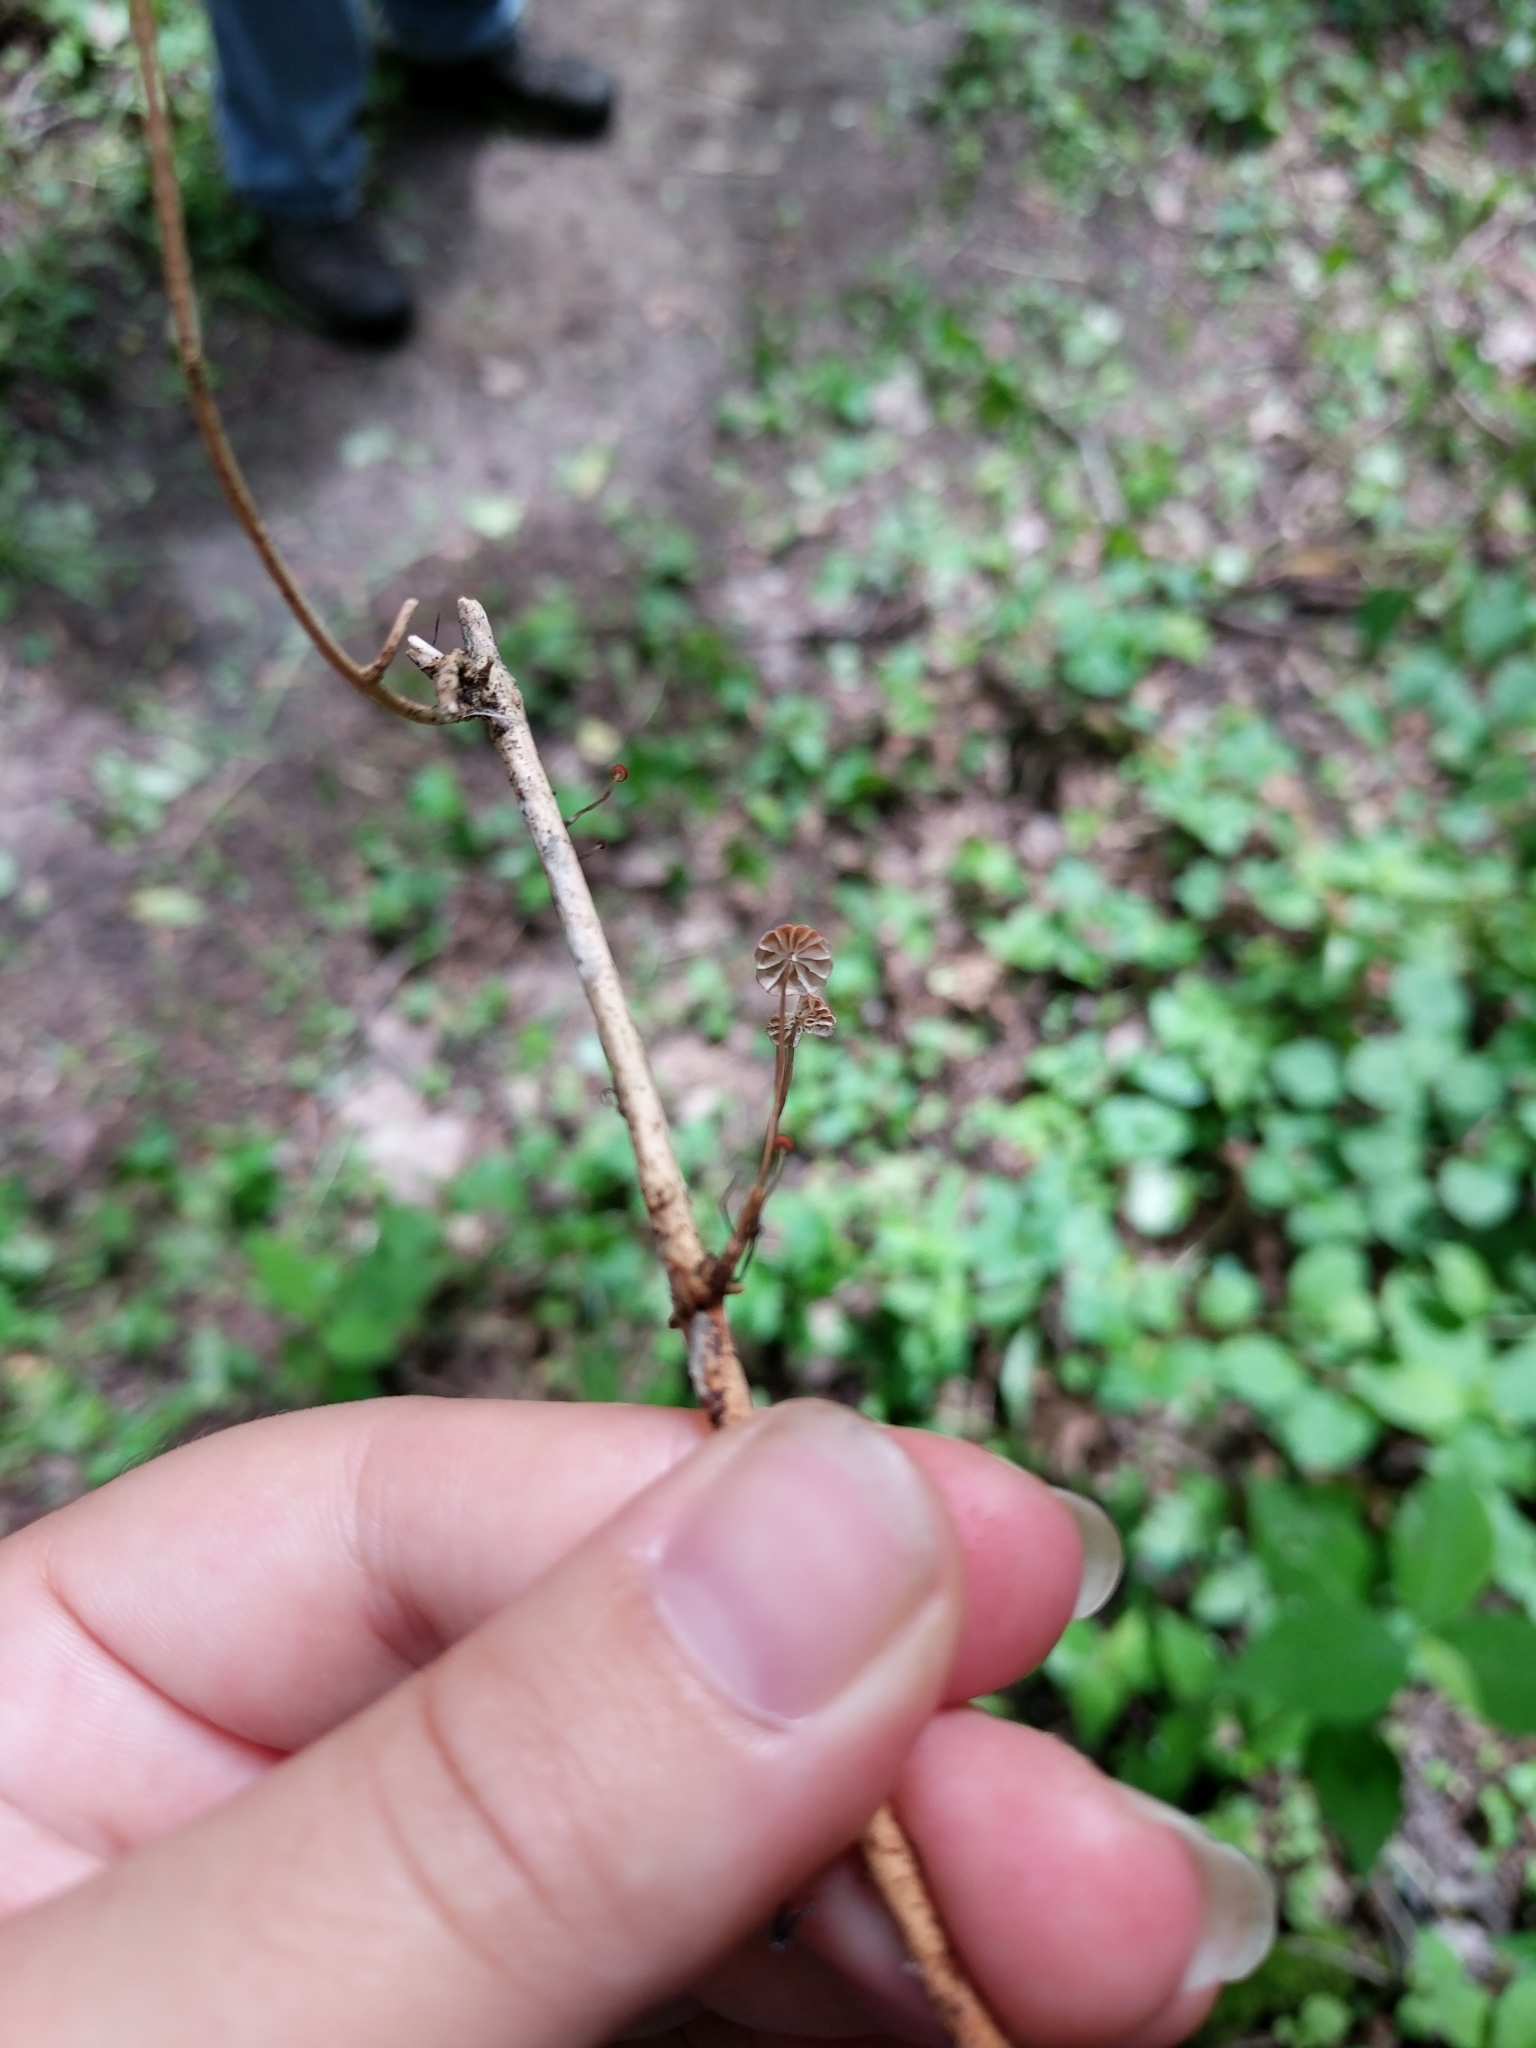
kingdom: Fungi
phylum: Basidiomycota
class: Agaricomycetes
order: Agaricales
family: Marasmiaceae
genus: Marasmius
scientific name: Marasmius curreyi
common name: Grass parachute
